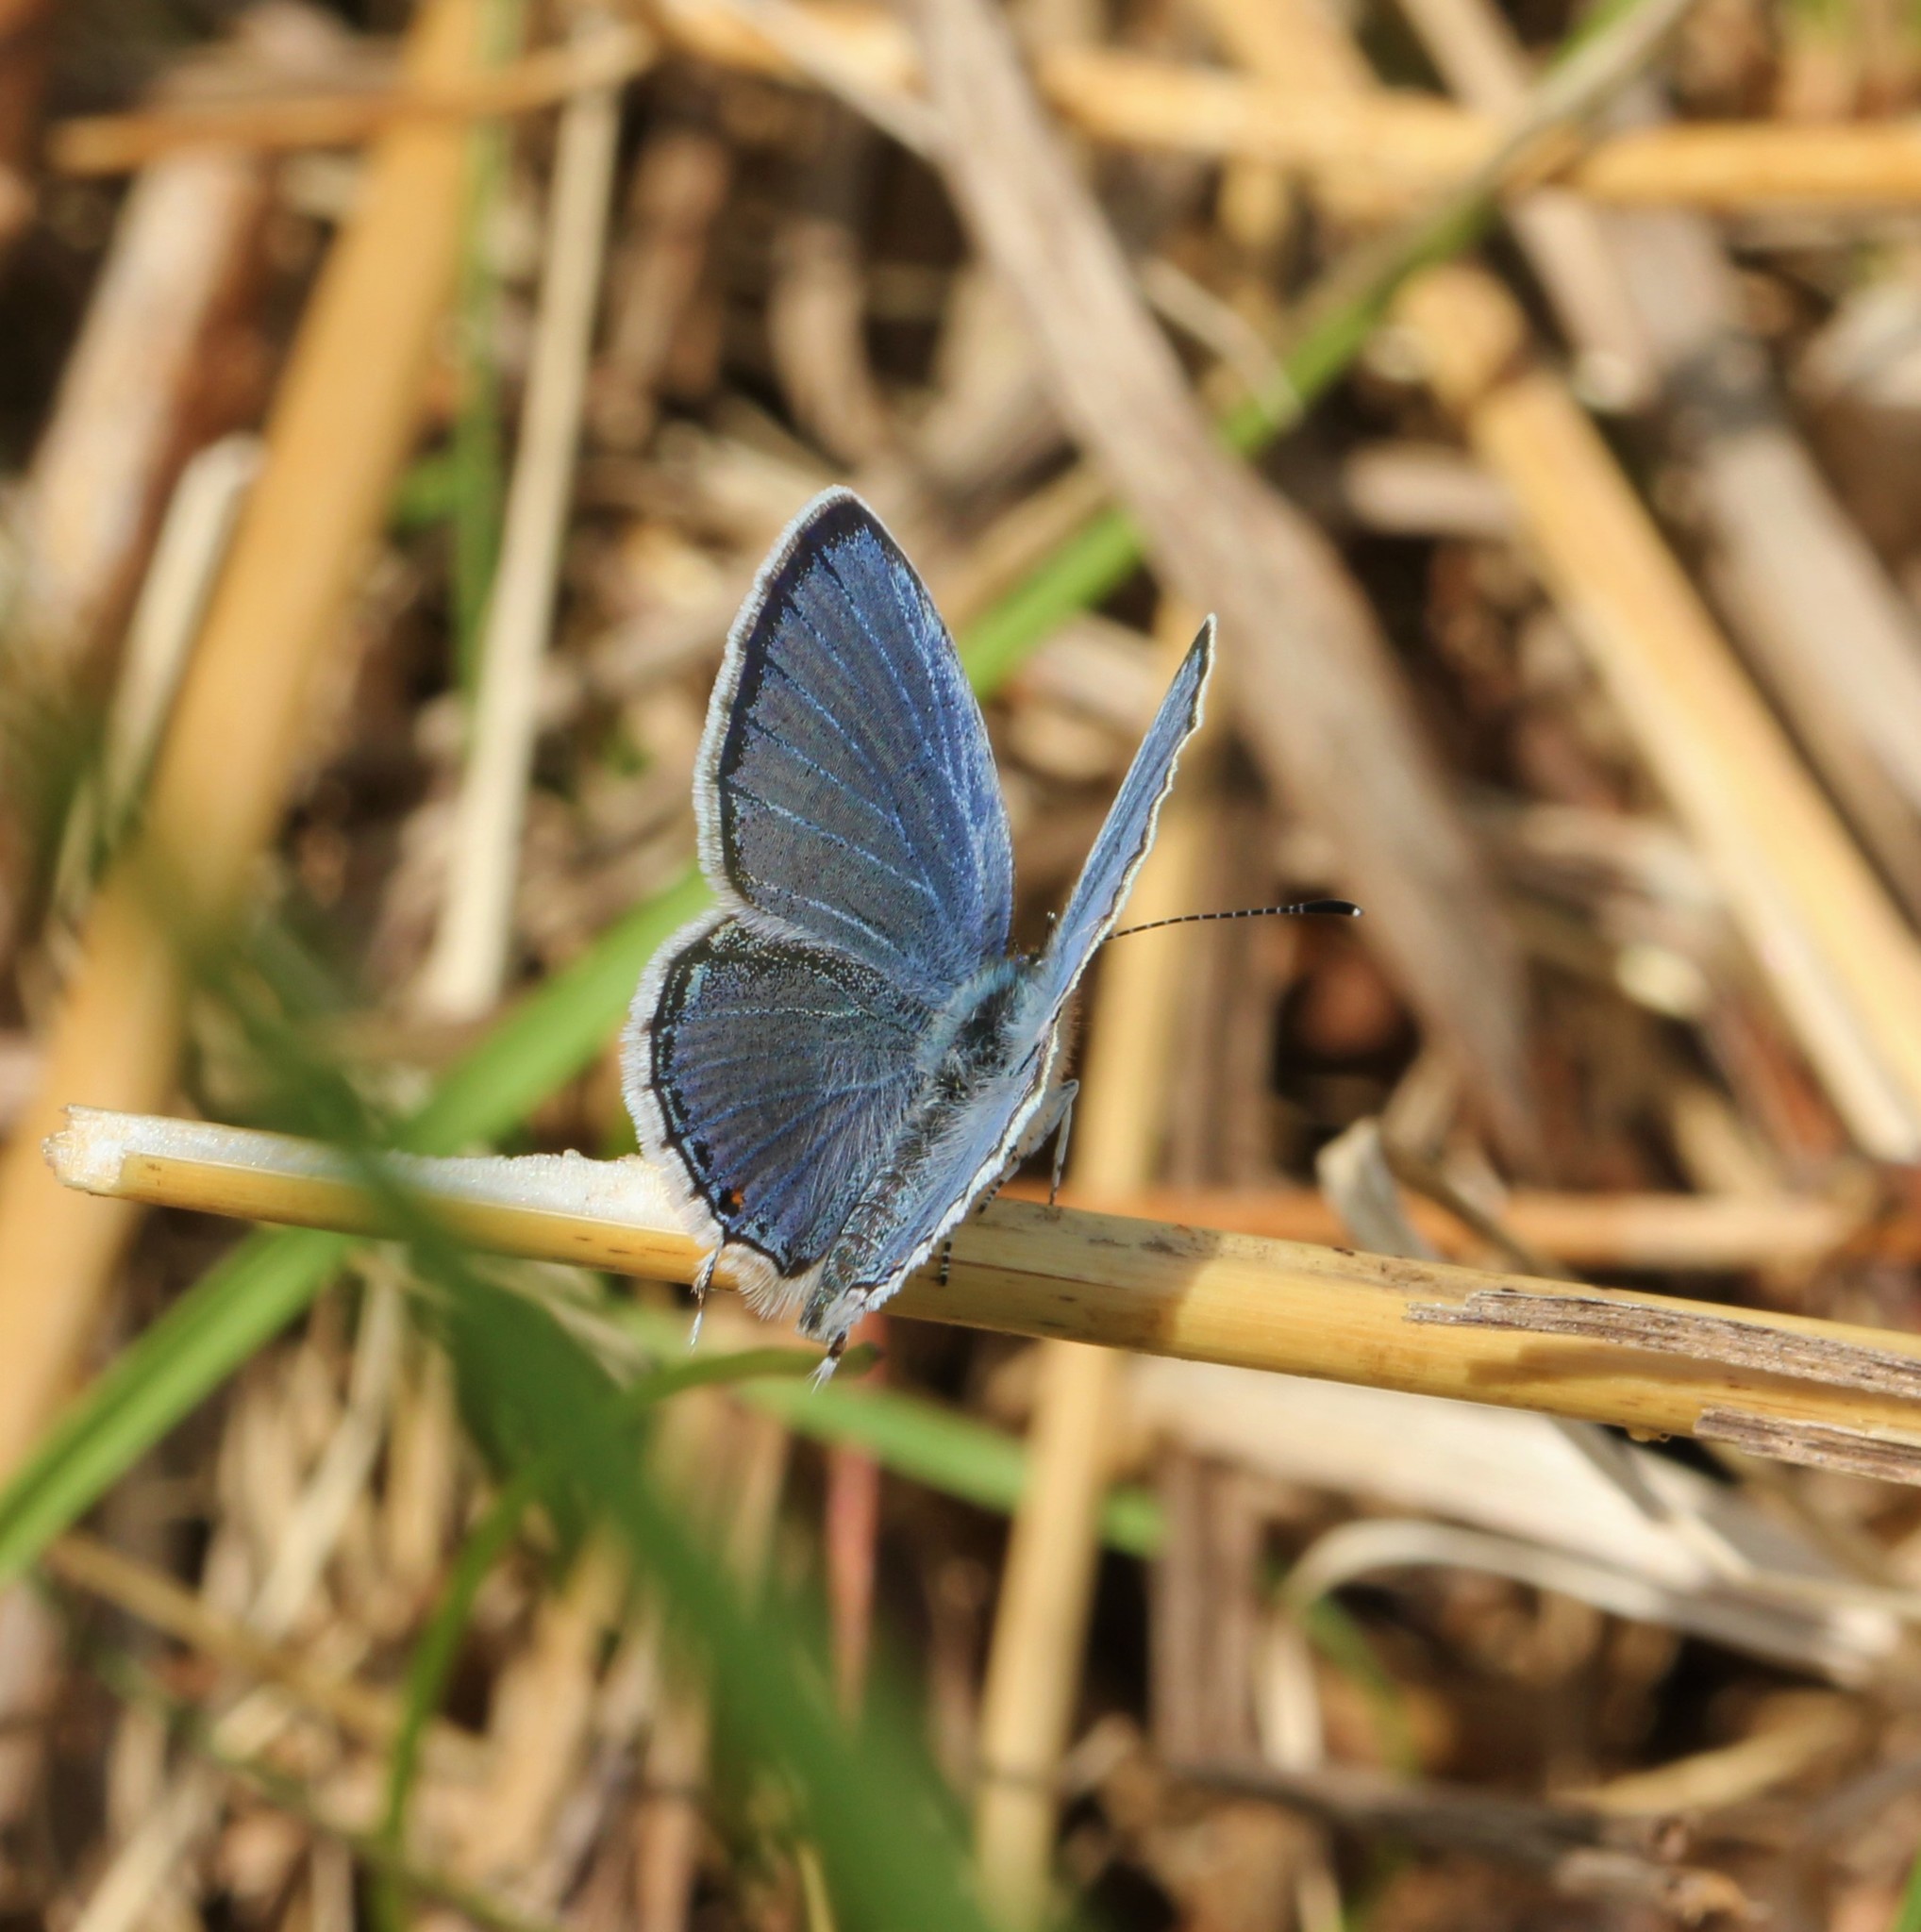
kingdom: Animalia
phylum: Arthropoda
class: Insecta
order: Lepidoptera
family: Lycaenidae
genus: Elkalyce
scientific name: Elkalyce comyntas
